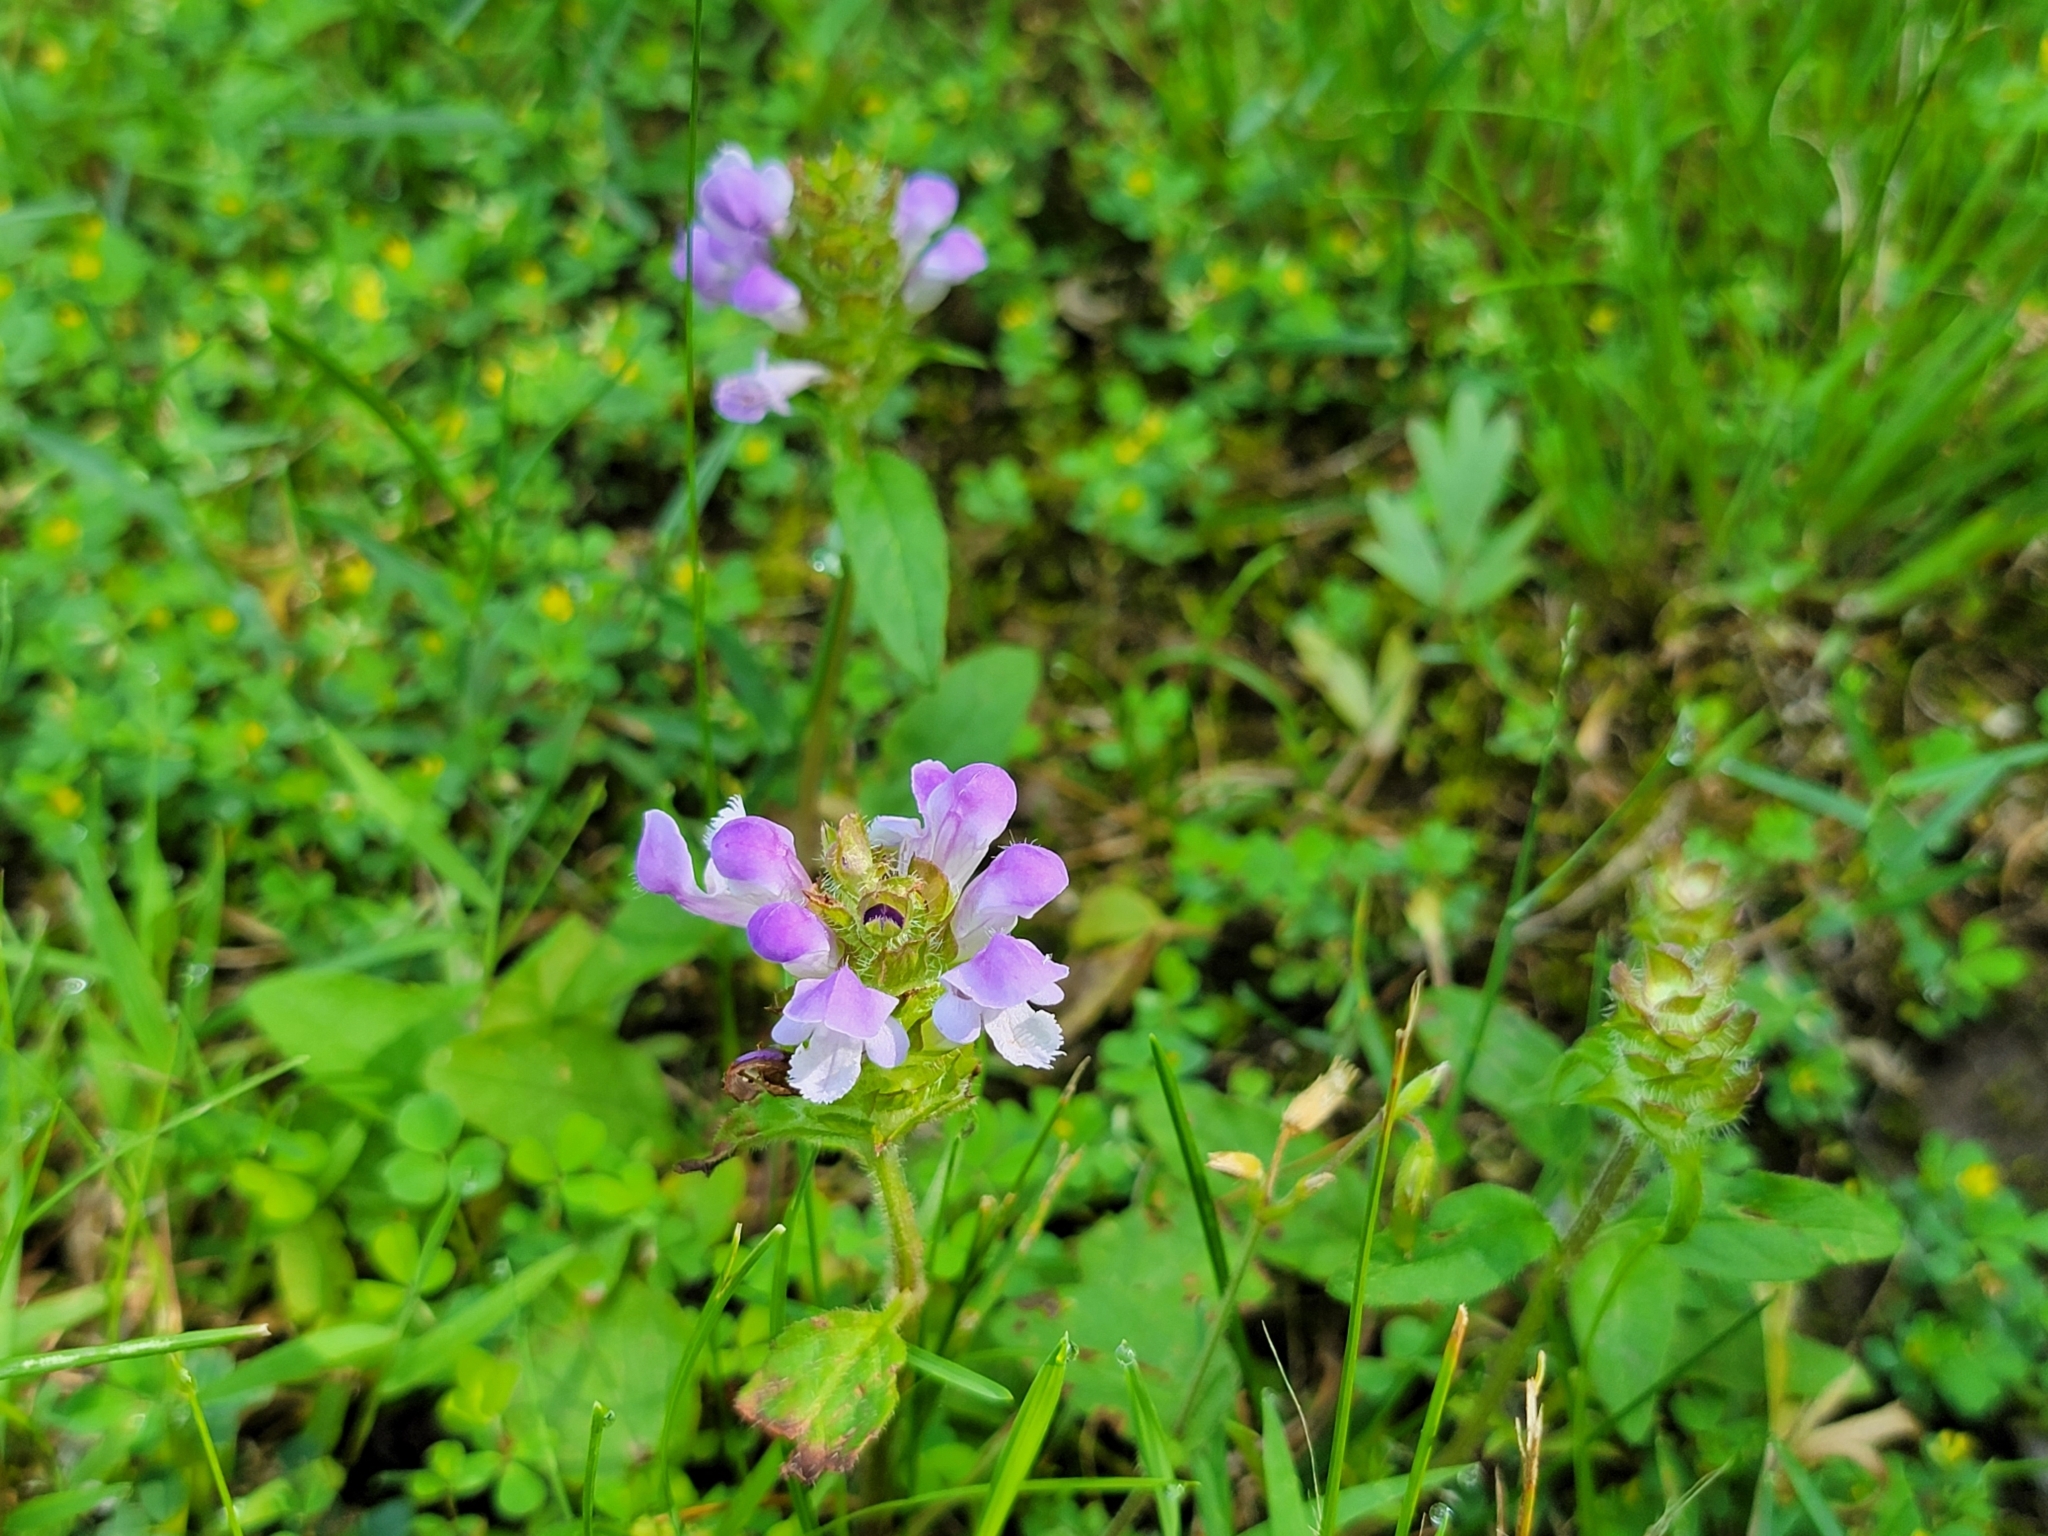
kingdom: Plantae
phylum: Tracheophyta
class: Magnoliopsida
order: Lamiales
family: Lamiaceae
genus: Prunella
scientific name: Prunella vulgaris
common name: Heal-all
